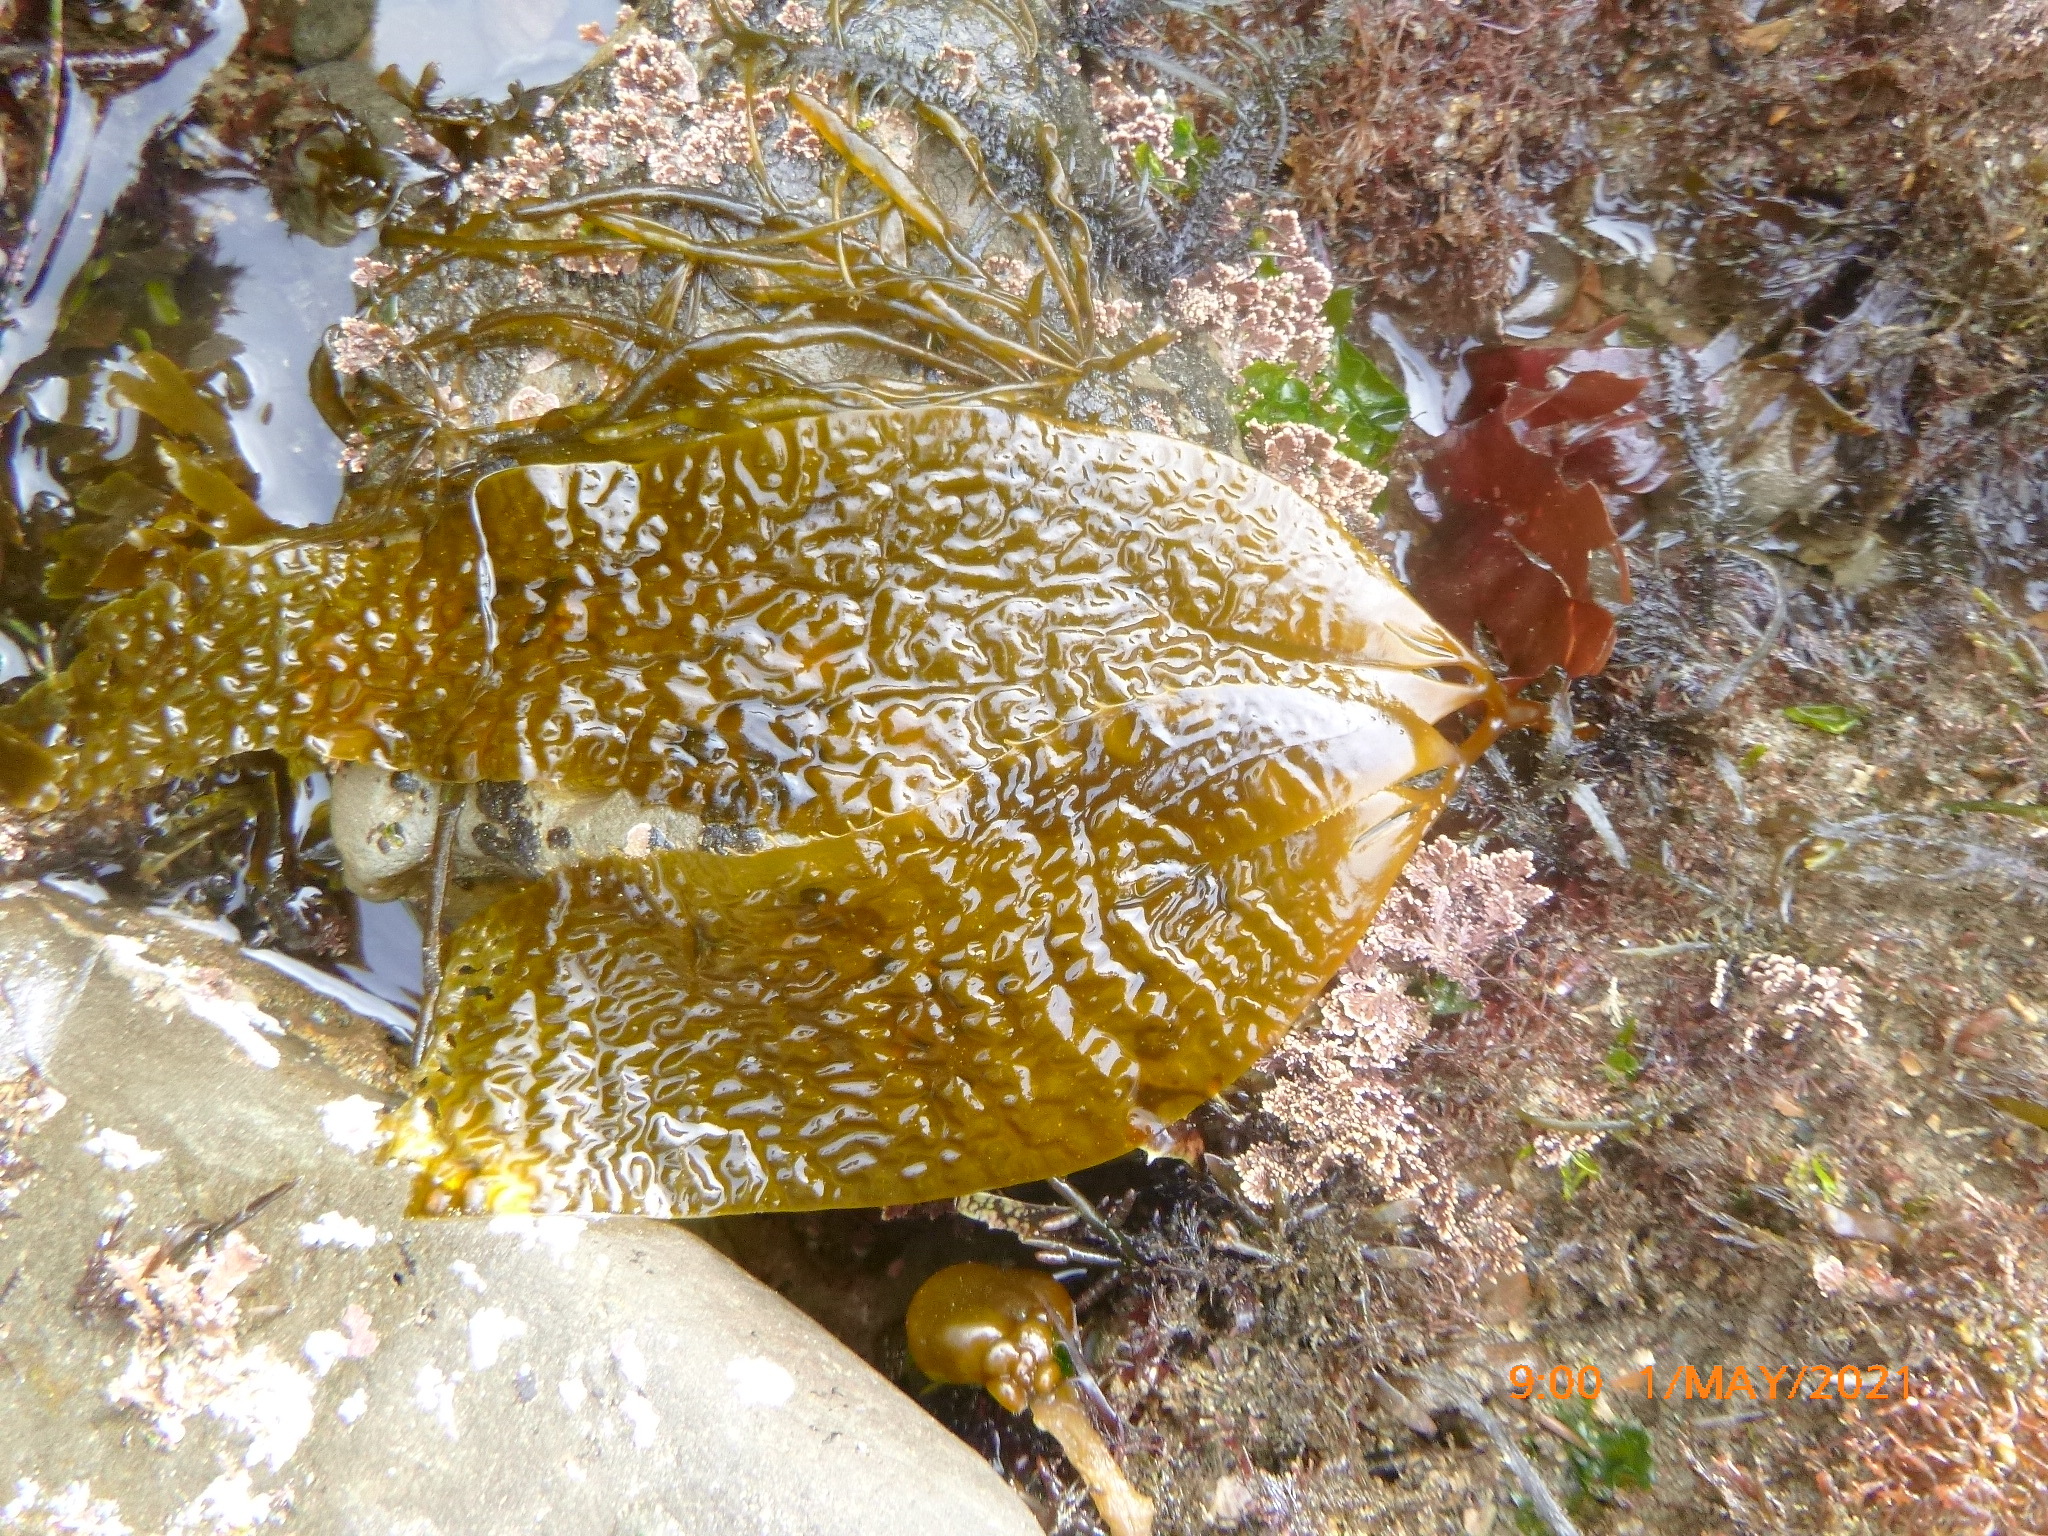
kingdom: Chromista
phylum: Ochrophyta
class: Phaeophyceae
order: Laminariales
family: Laminariaceae
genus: Macrocystis
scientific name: Macrocystis pyrifera
